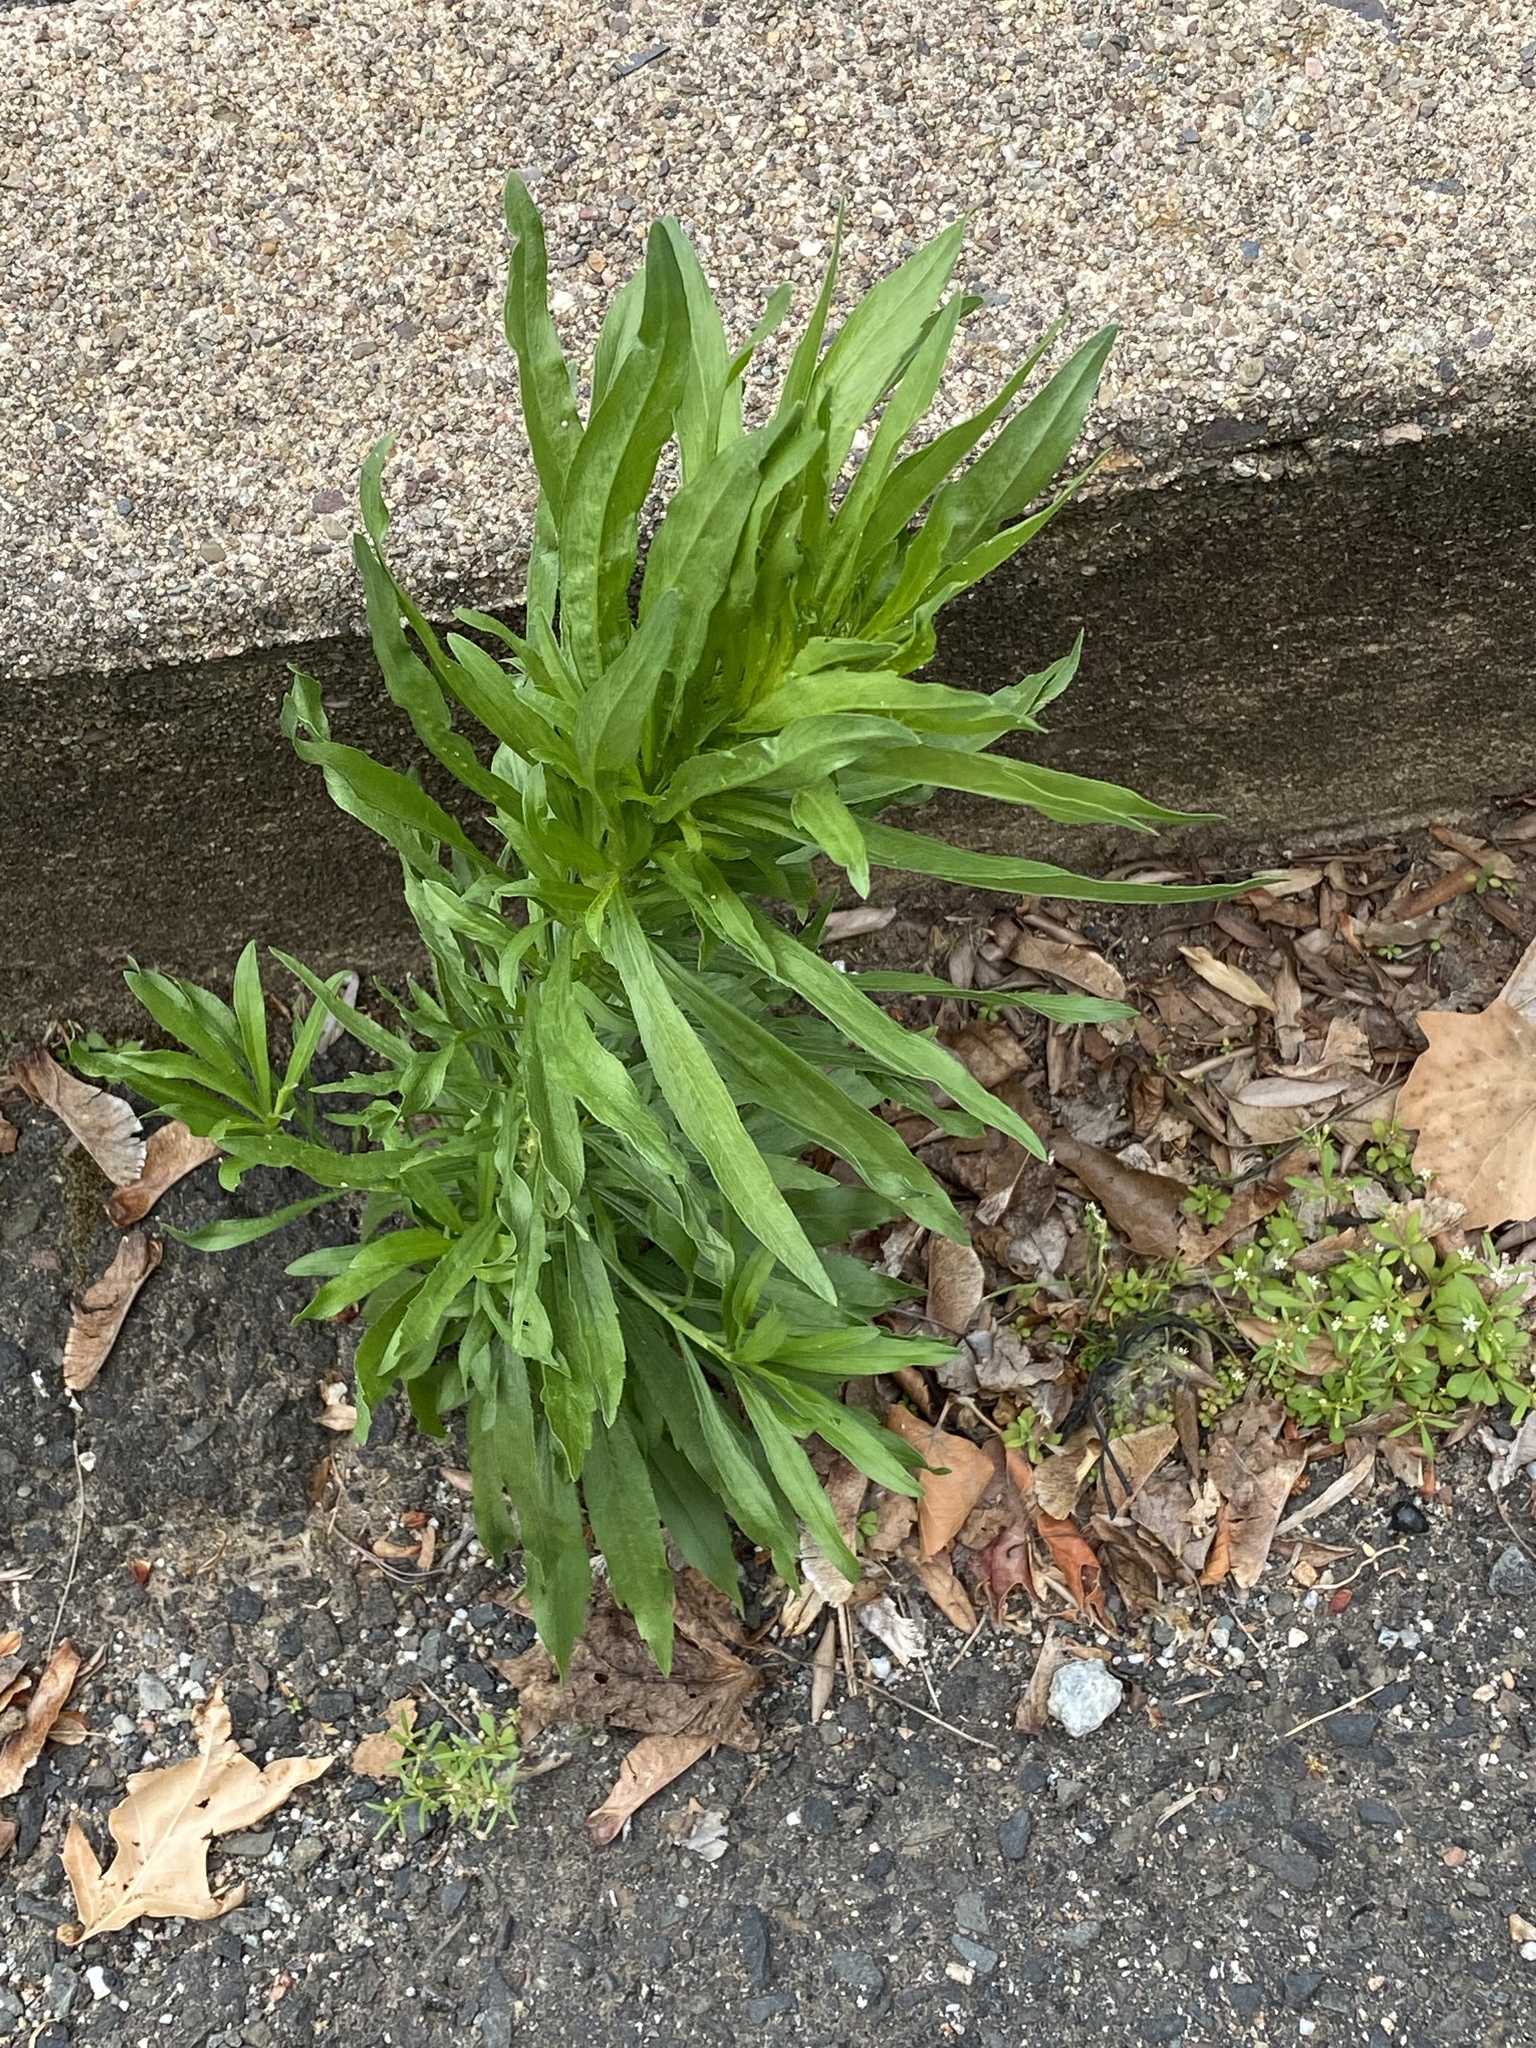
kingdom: Plantae
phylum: Tracheophyta
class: Magnoliopsida
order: Asterales
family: Asteraceae
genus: Erigeron
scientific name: Erigeron canadensis
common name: Canadian fleabane
